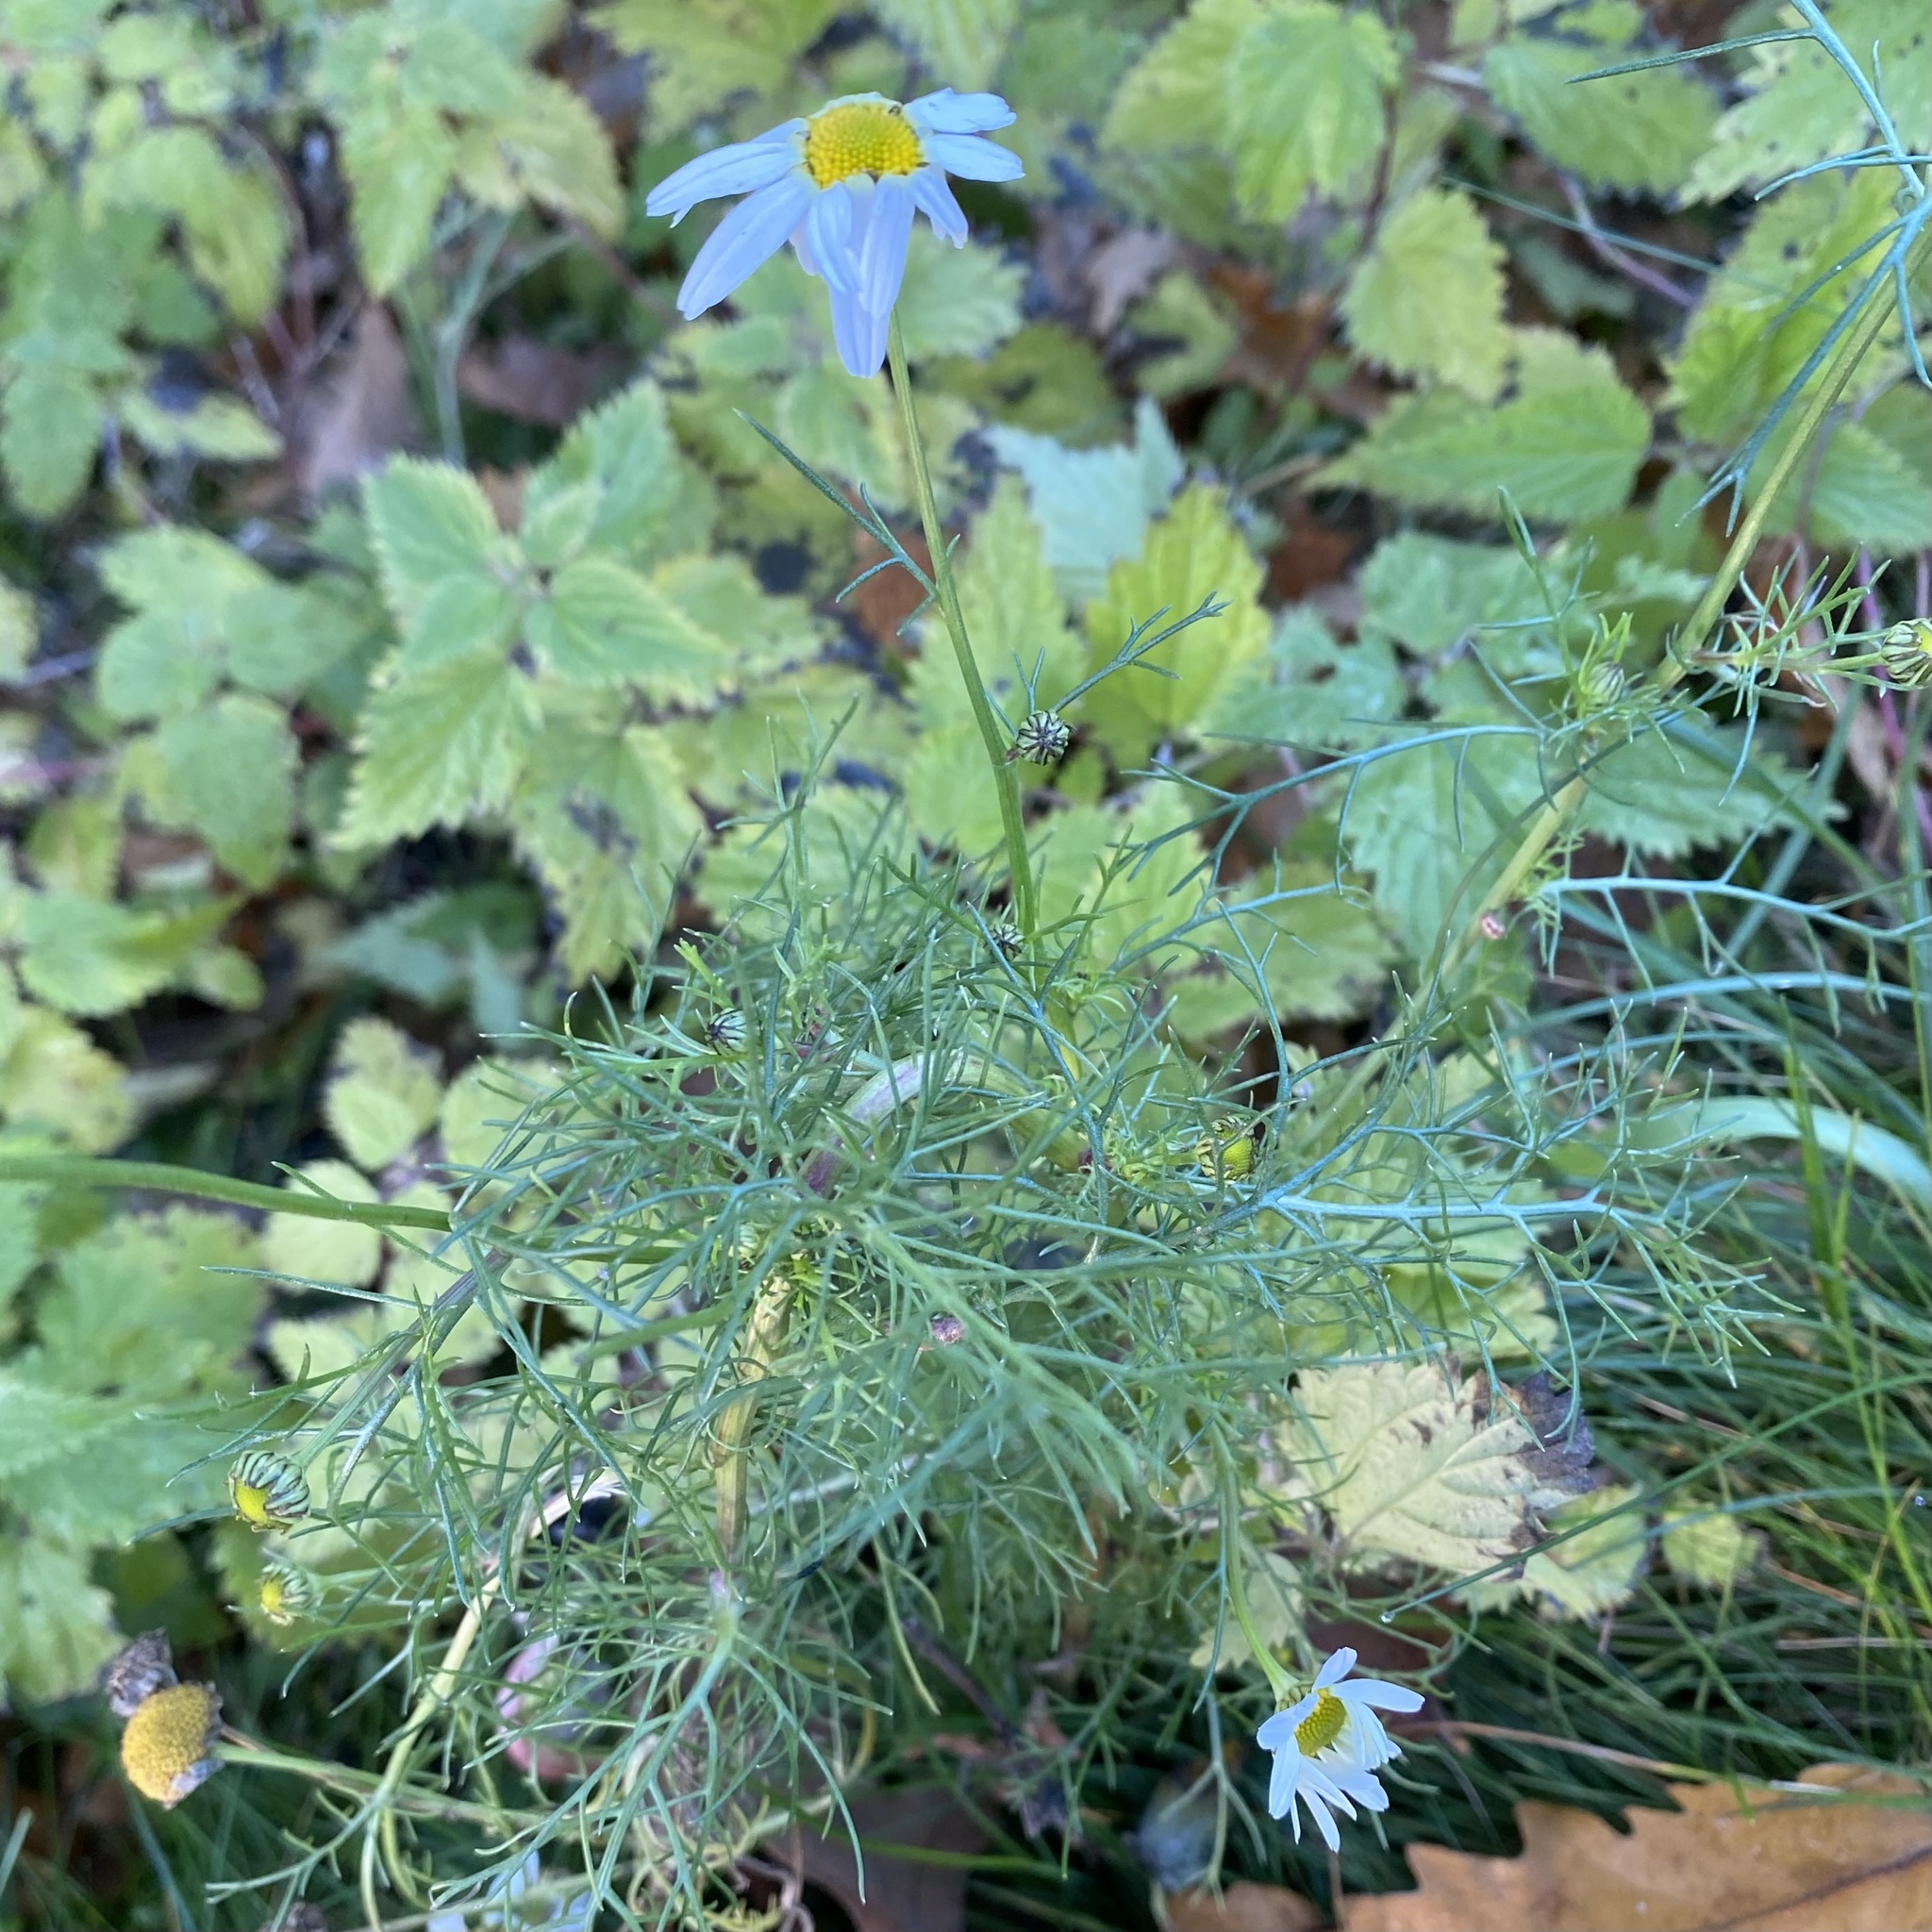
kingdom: Plantae
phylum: Tracheophyta
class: Magnoliopsida
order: Asterales
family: Asteraceae
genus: Tripleurospermum
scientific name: Tripleurospermum inodorum
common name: Scentless mayweed
